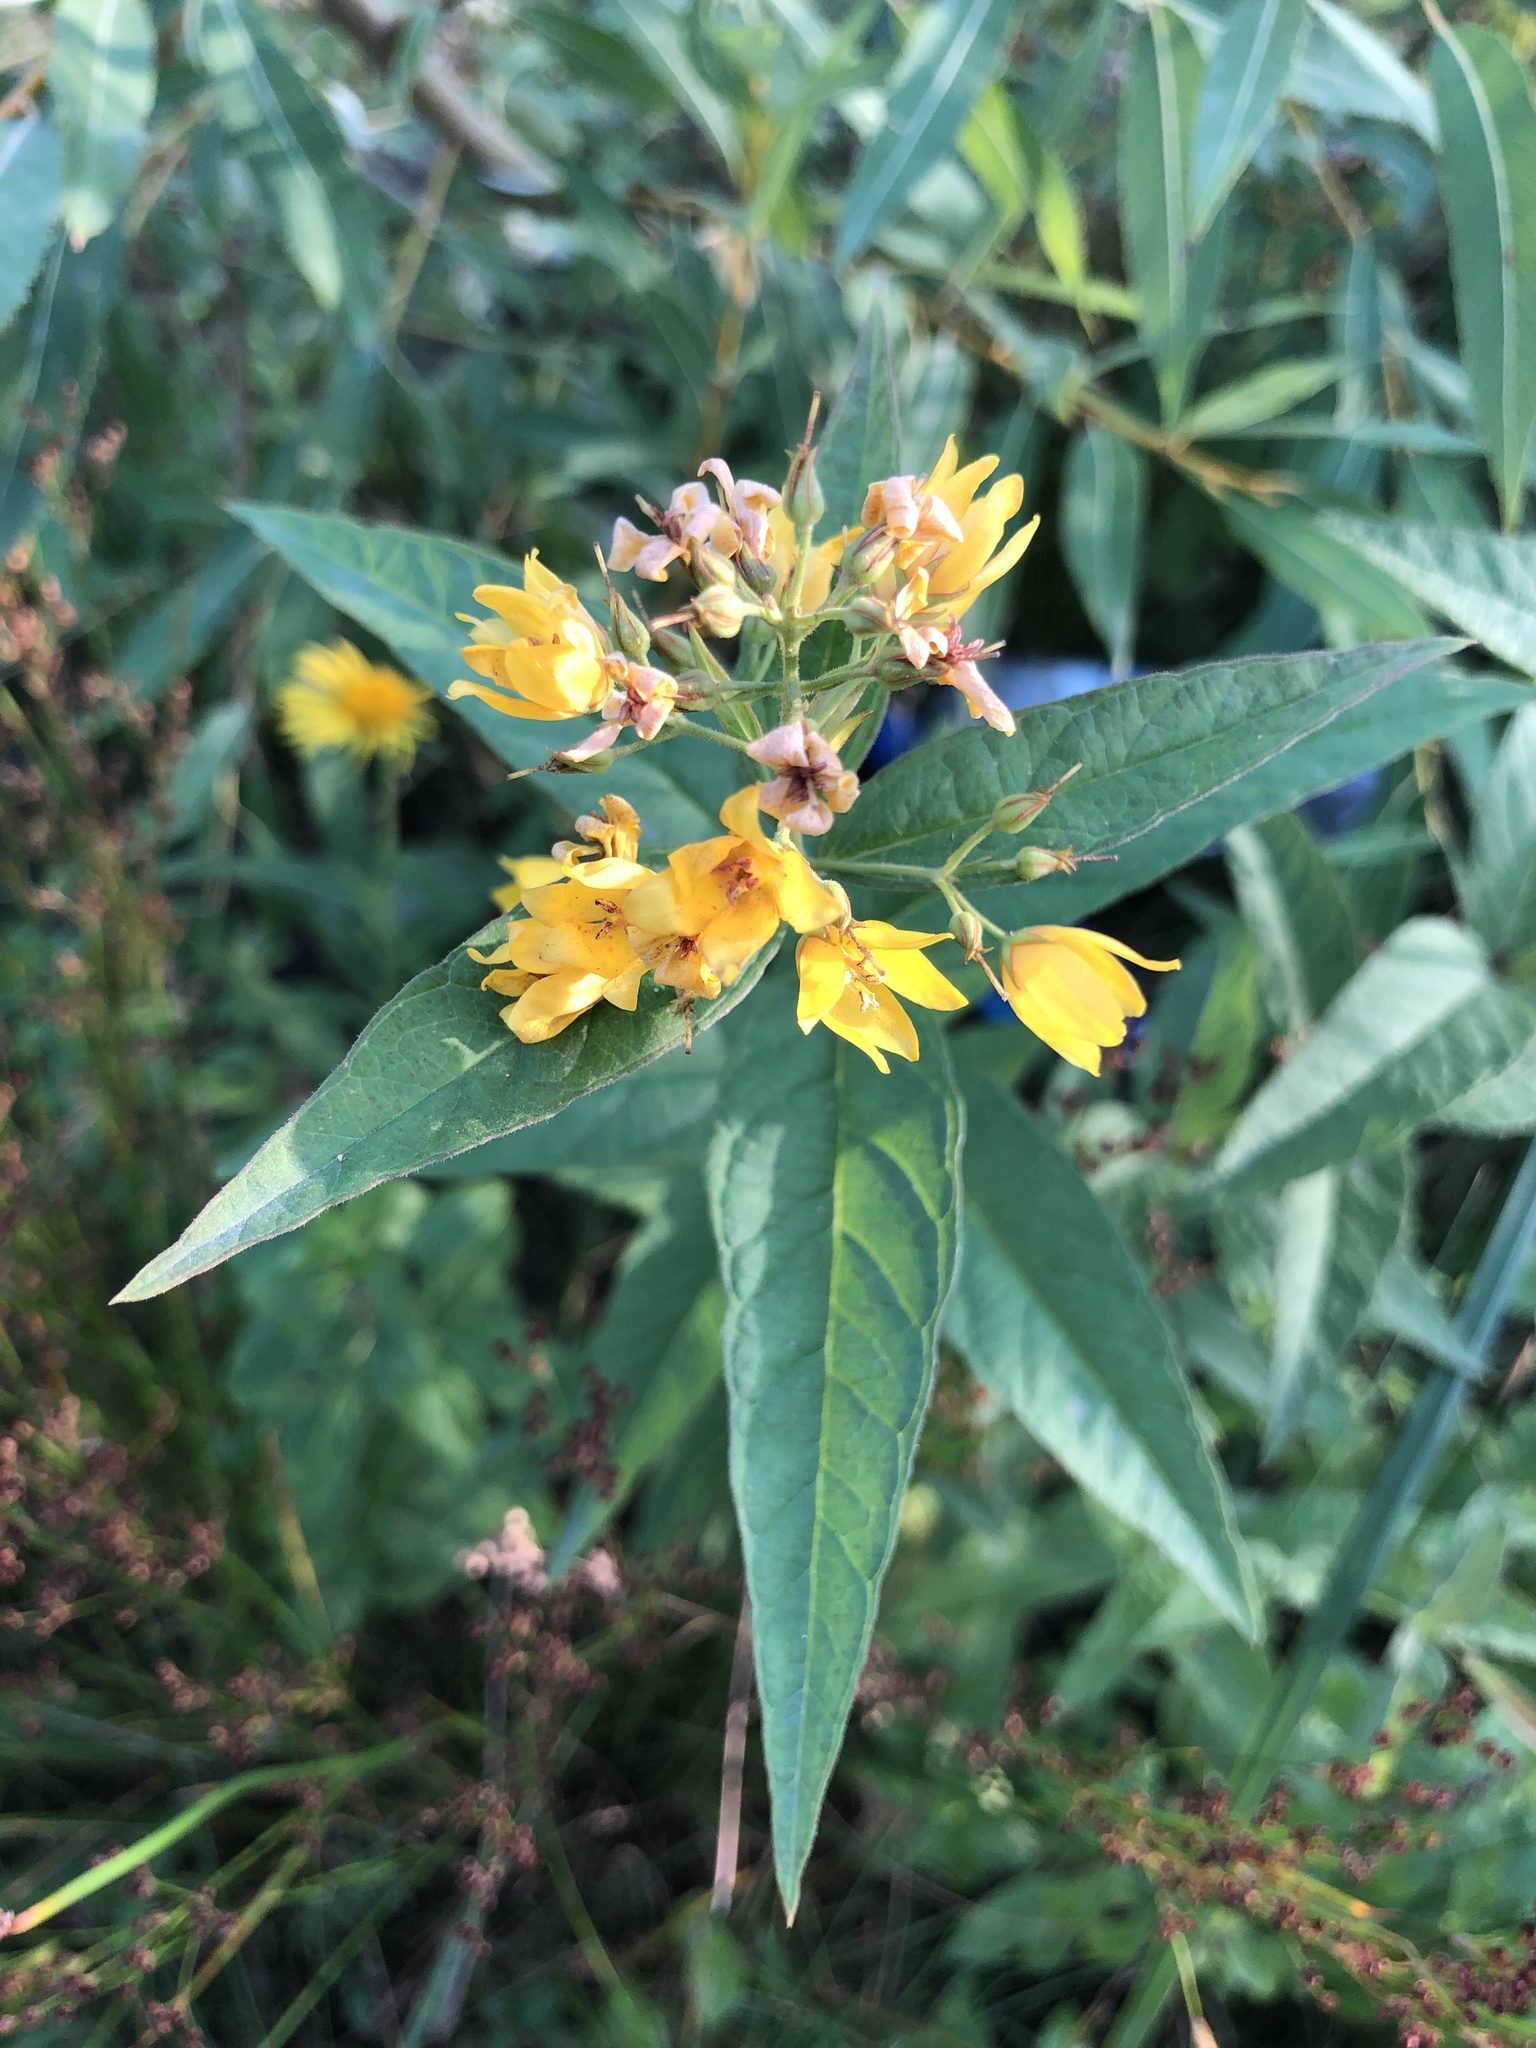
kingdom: Plantae
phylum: Tracheophyta
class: Magnoliopsida
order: Ericales
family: Primulaceae
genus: Lysimachia
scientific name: Lysimachia vulgaris
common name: Yellow loosestrife
